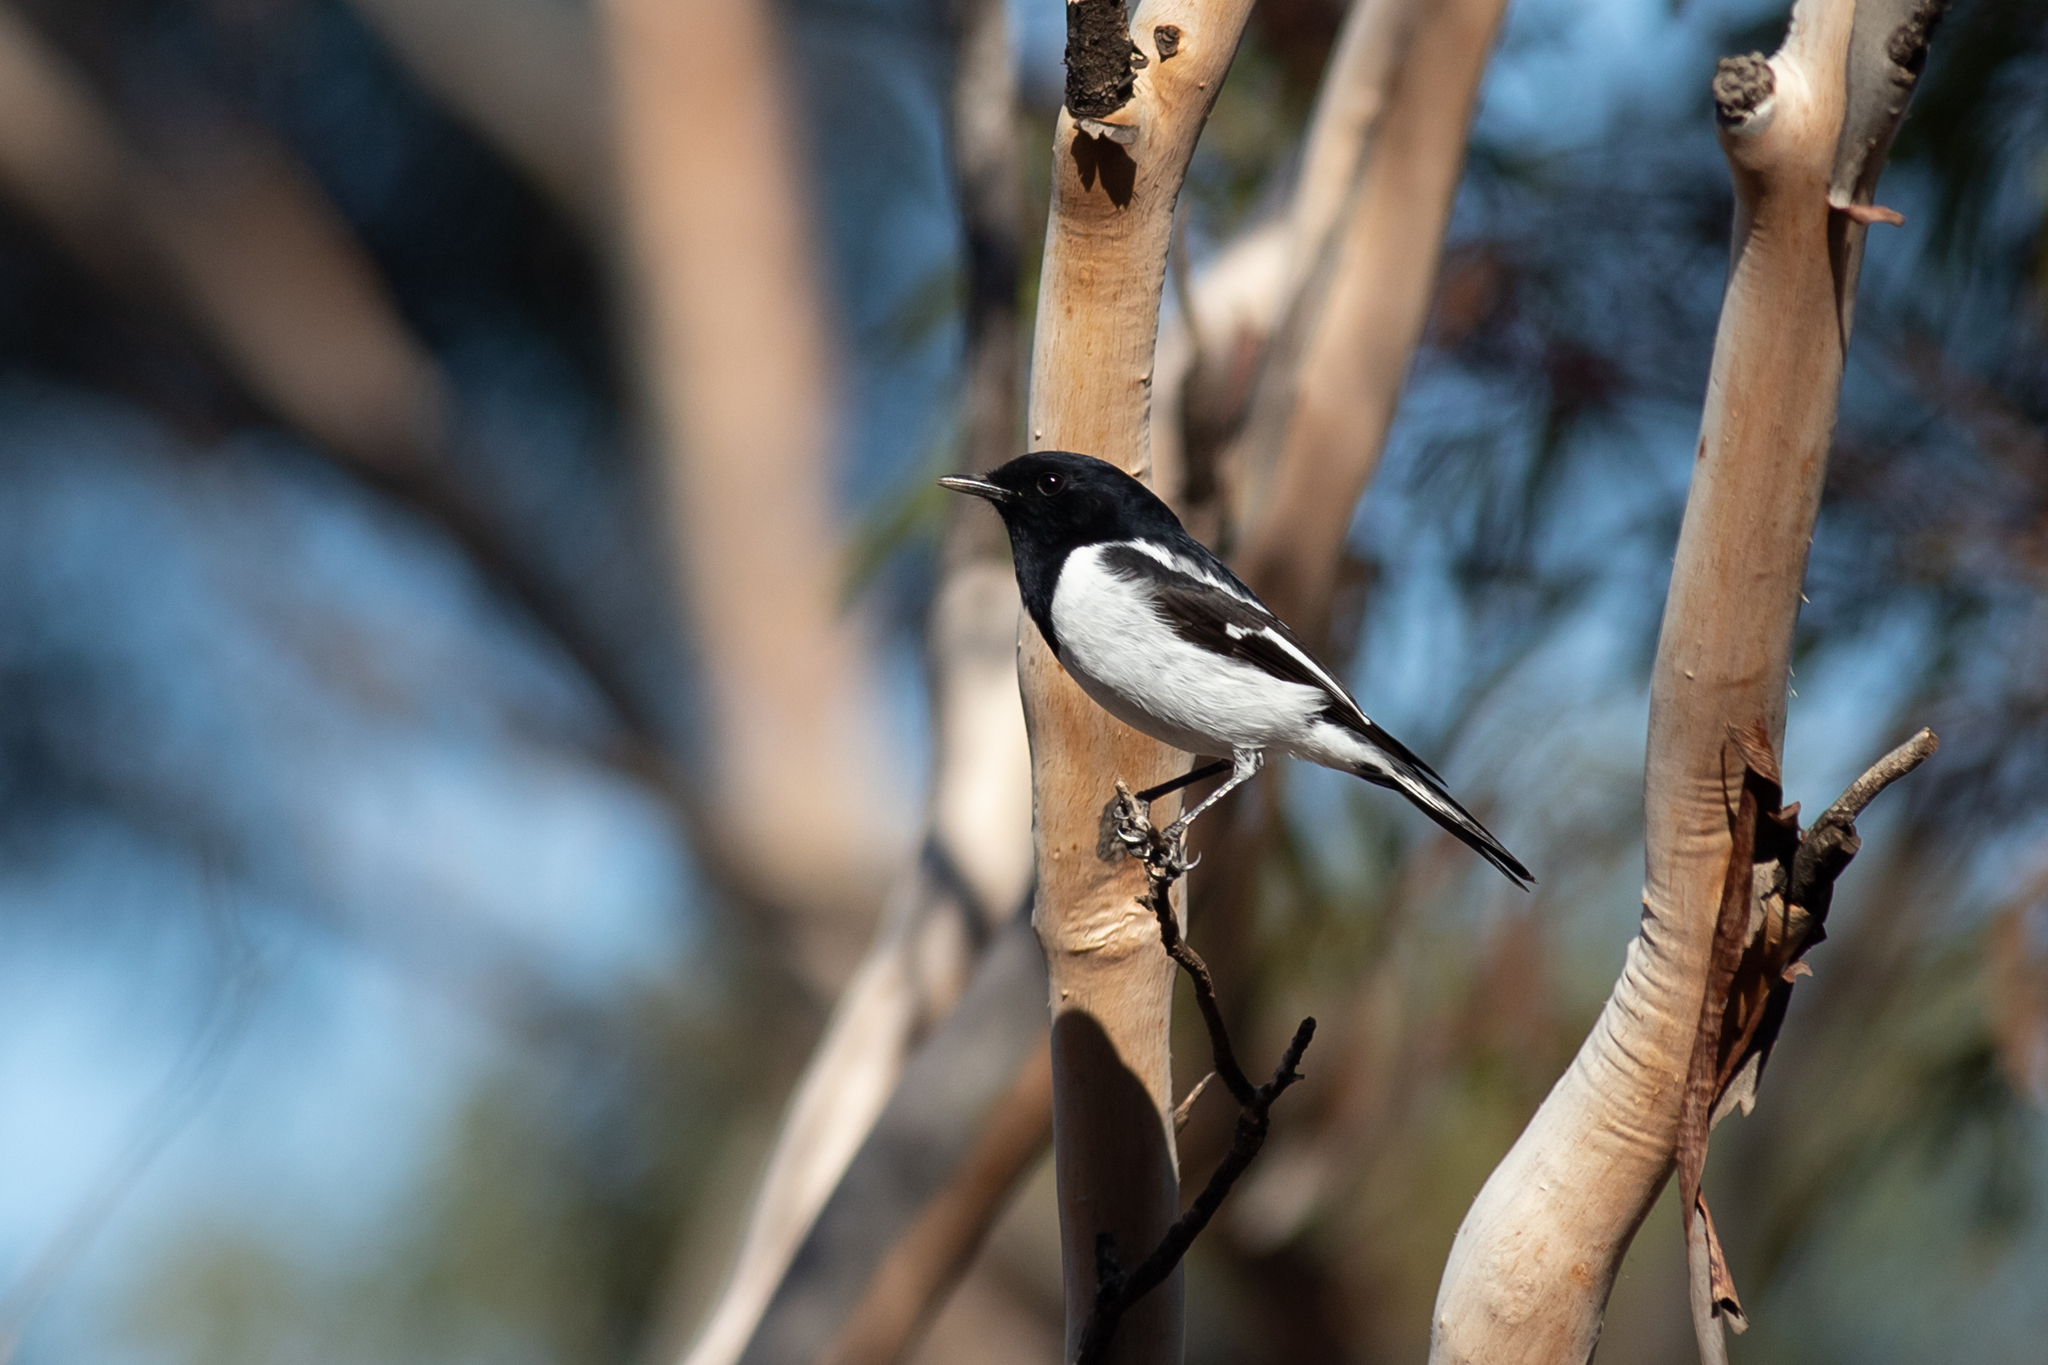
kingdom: Animalia
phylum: Chordata
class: Aves
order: Passeriformes
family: Petroicidae
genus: Melanodryas
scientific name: Melanodryas cucullata
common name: Hooded robin
